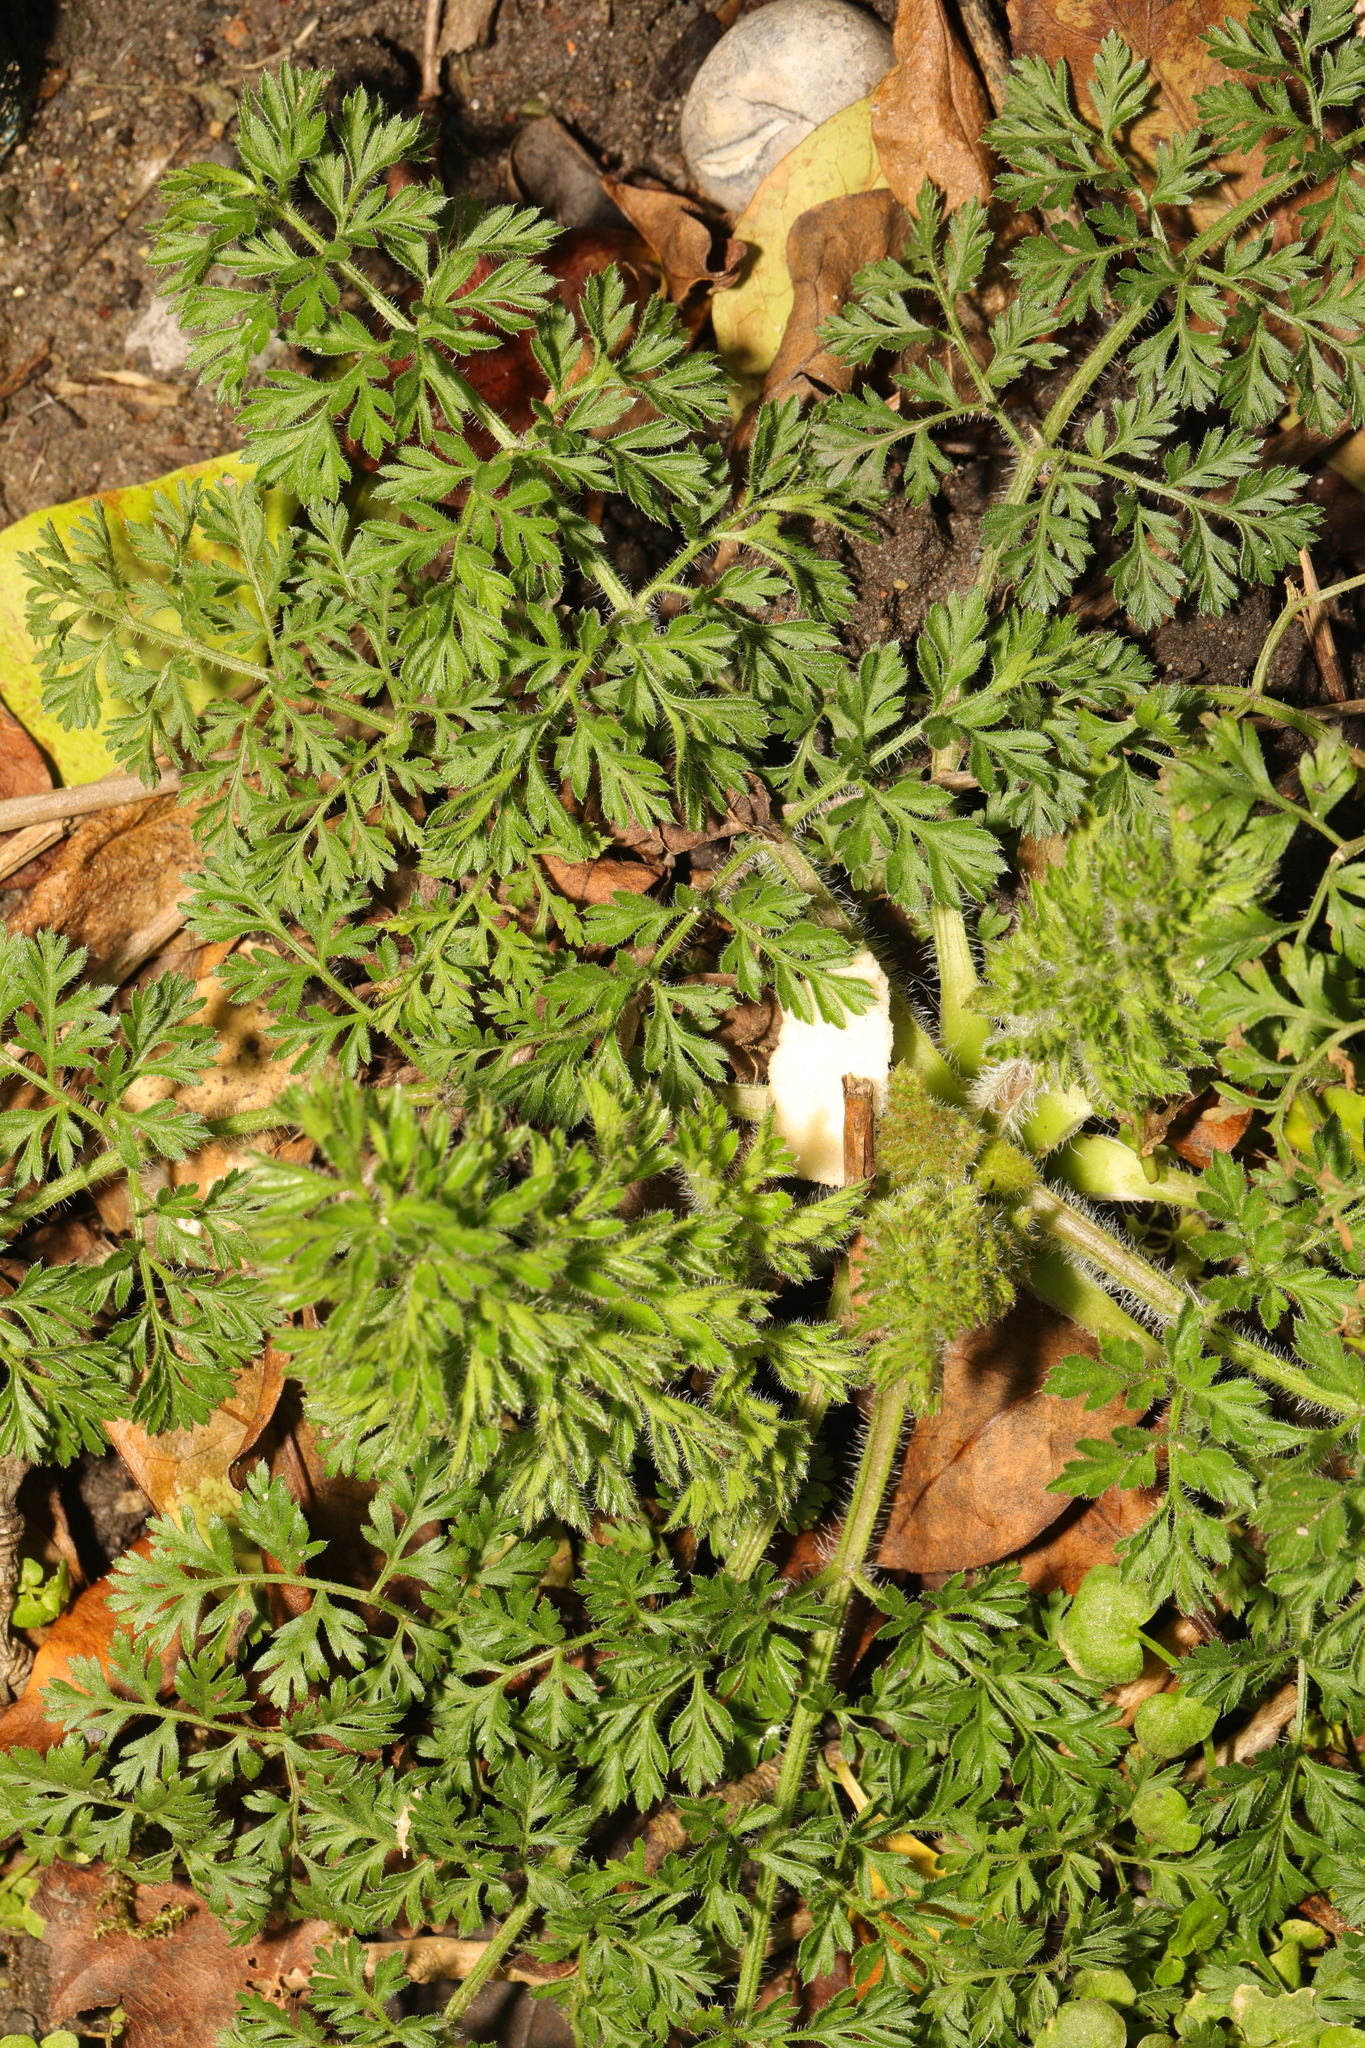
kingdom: Plantae
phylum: Tracheophyta
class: Magnoliopsida
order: Apiales
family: Apiaceae
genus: Daucus
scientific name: Daucus carota
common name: Wild carrot
